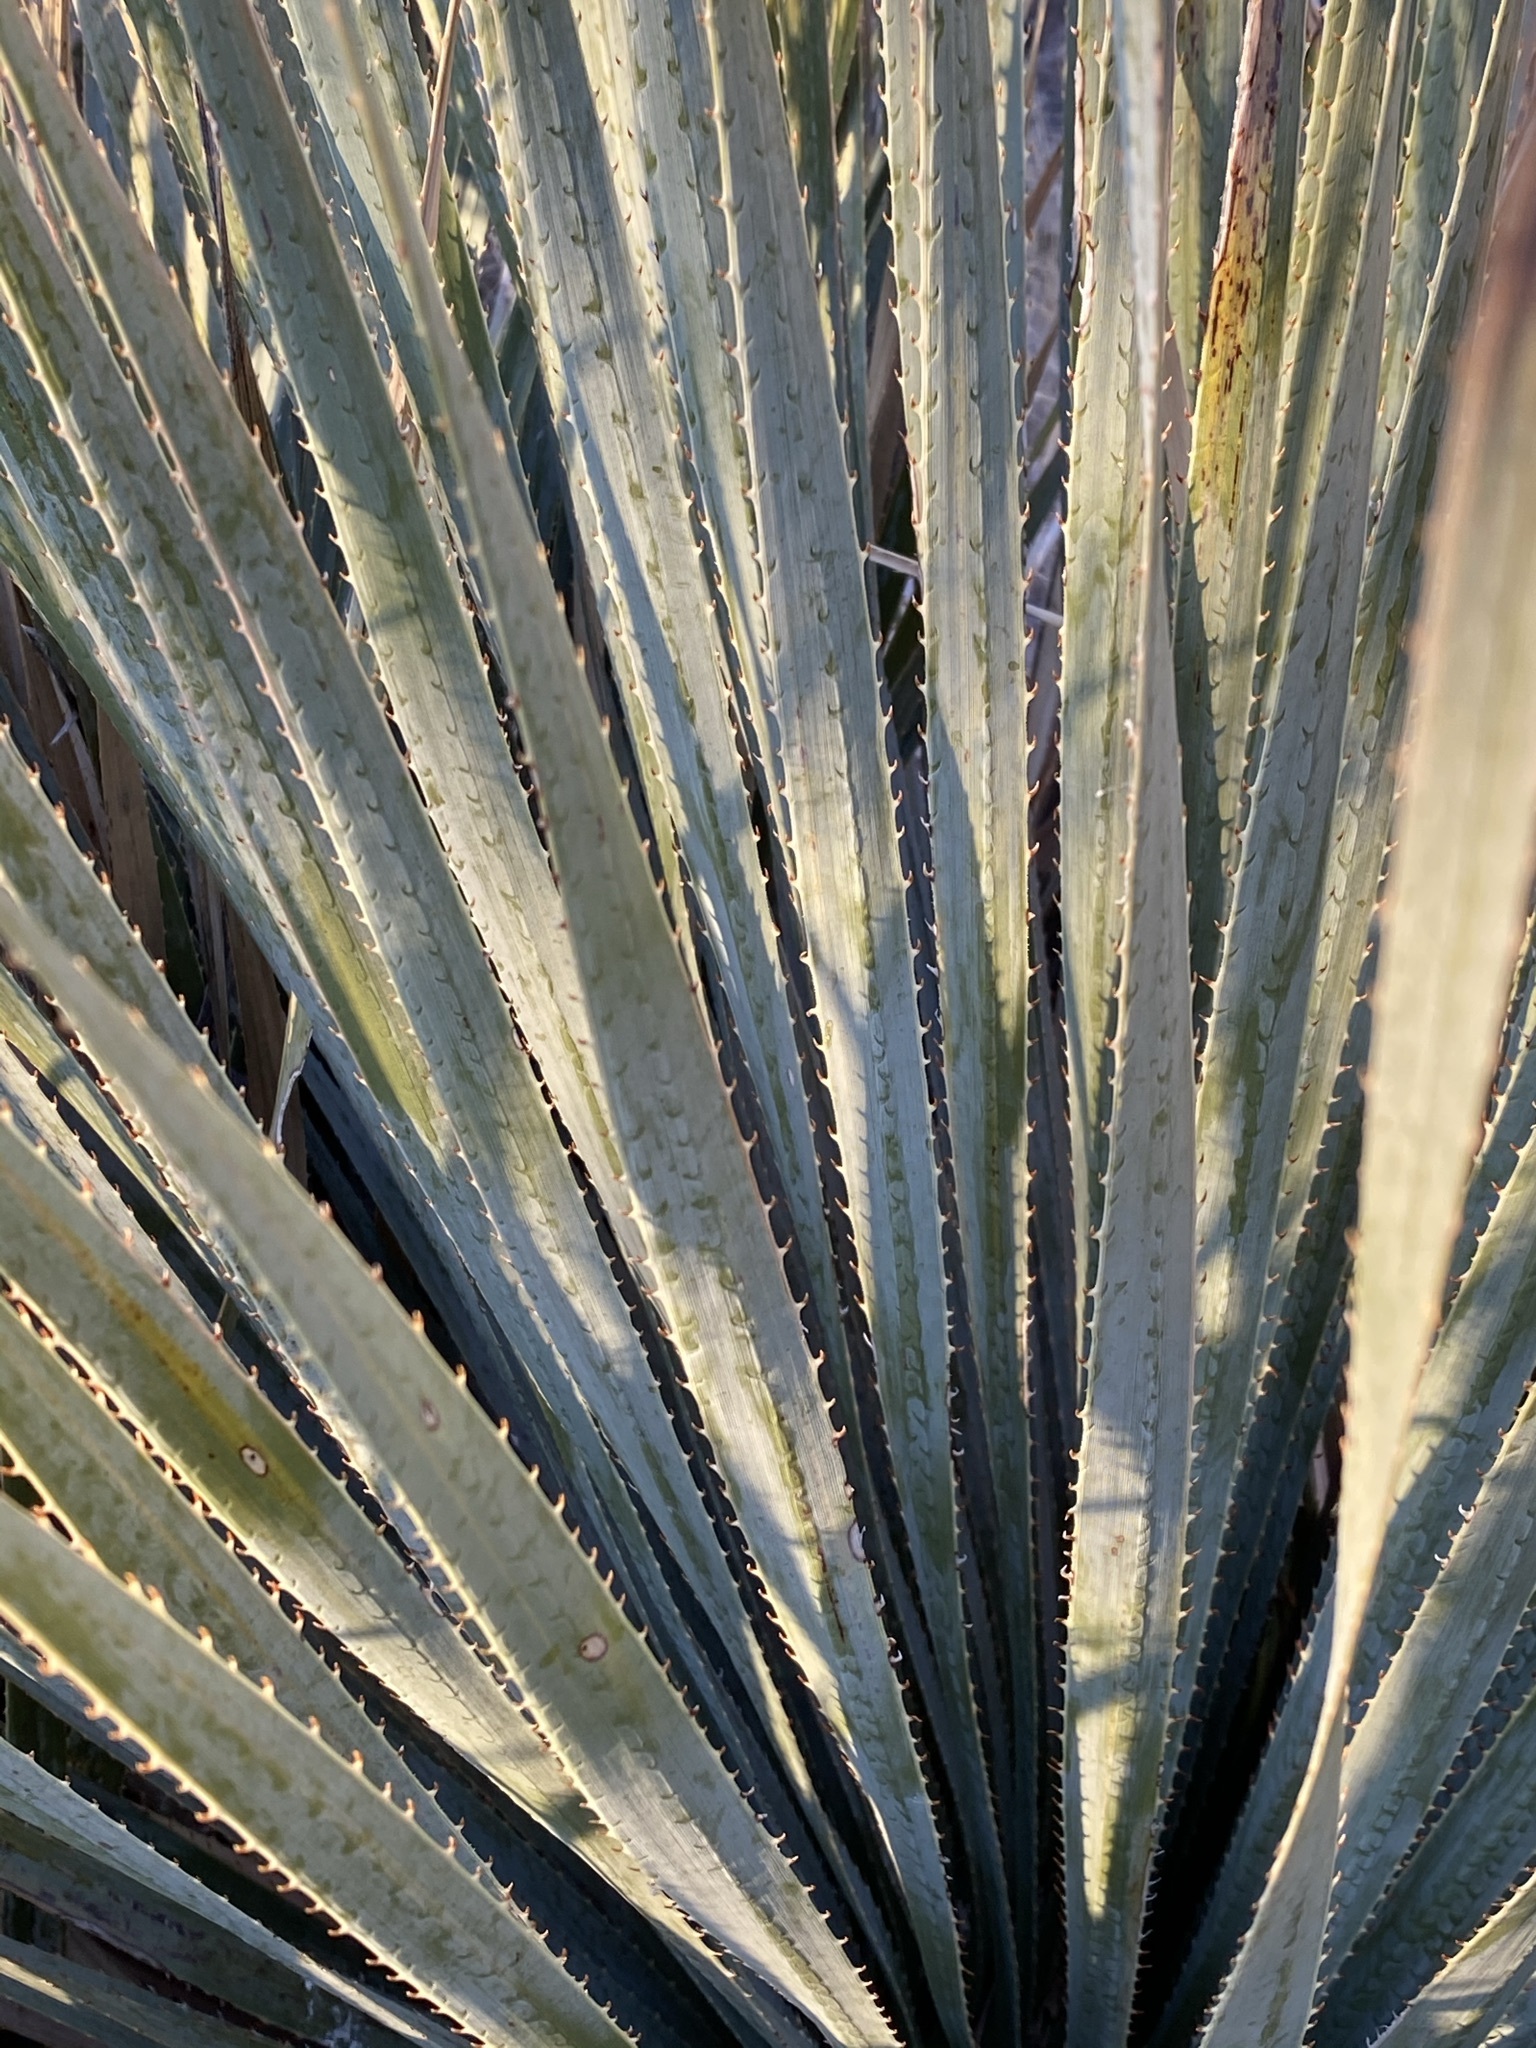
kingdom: Plantae
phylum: Tracheophyta
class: Liliopsida
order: Asparagales
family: Asparagaceae
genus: Dasylirion
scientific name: Dasylirion wheeleri
